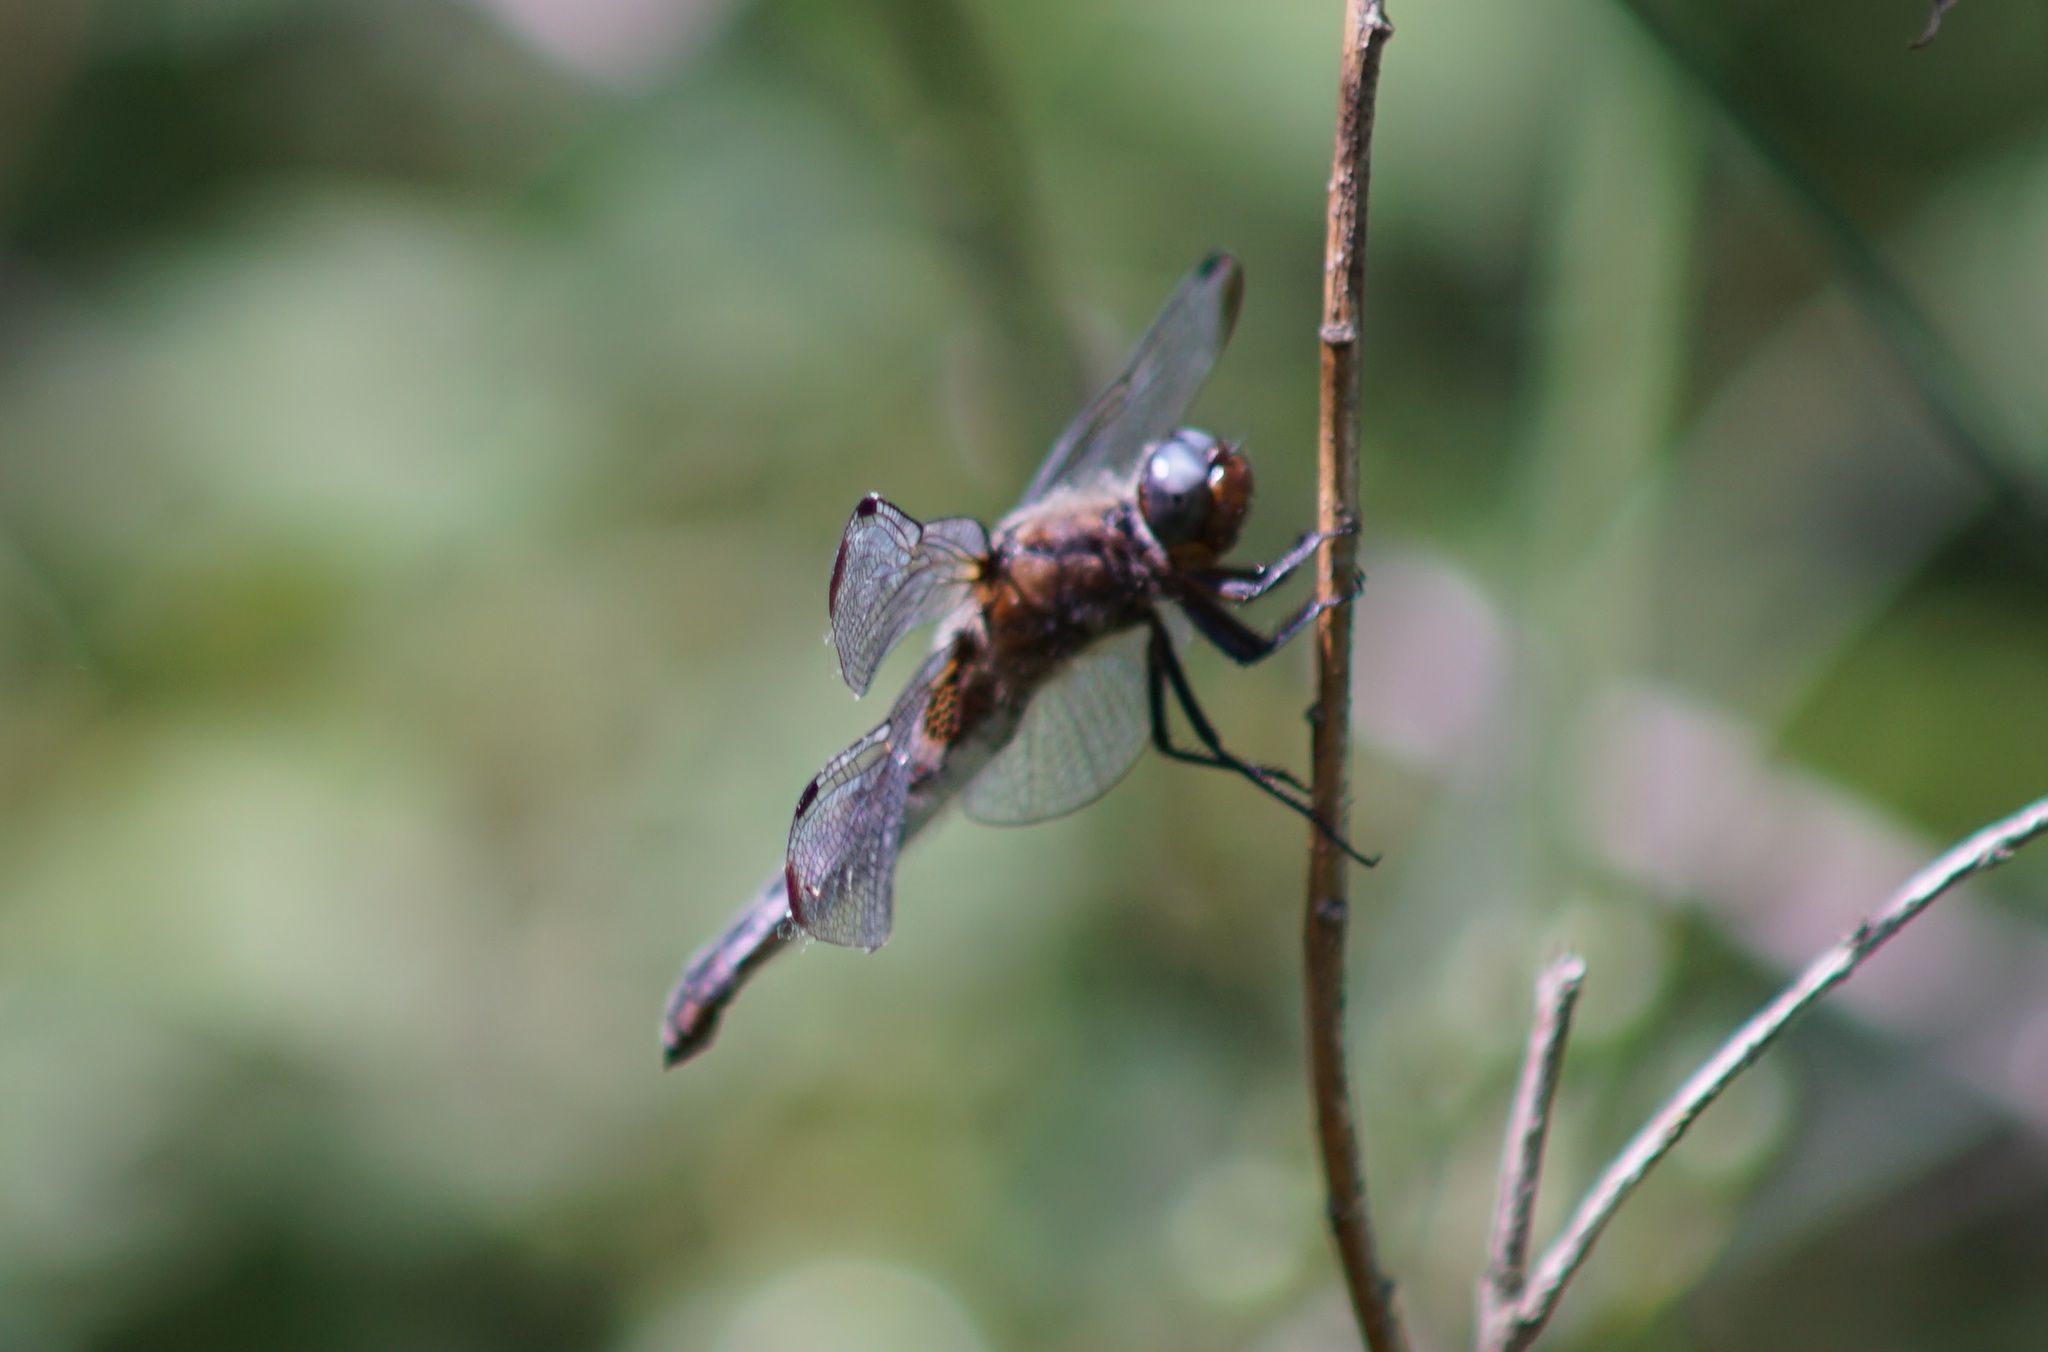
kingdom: Animalia
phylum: Arthropoda
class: Insecta
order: Odonata
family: Libellulidae
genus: Libellula
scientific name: Libellula fulva
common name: Blue chaser
